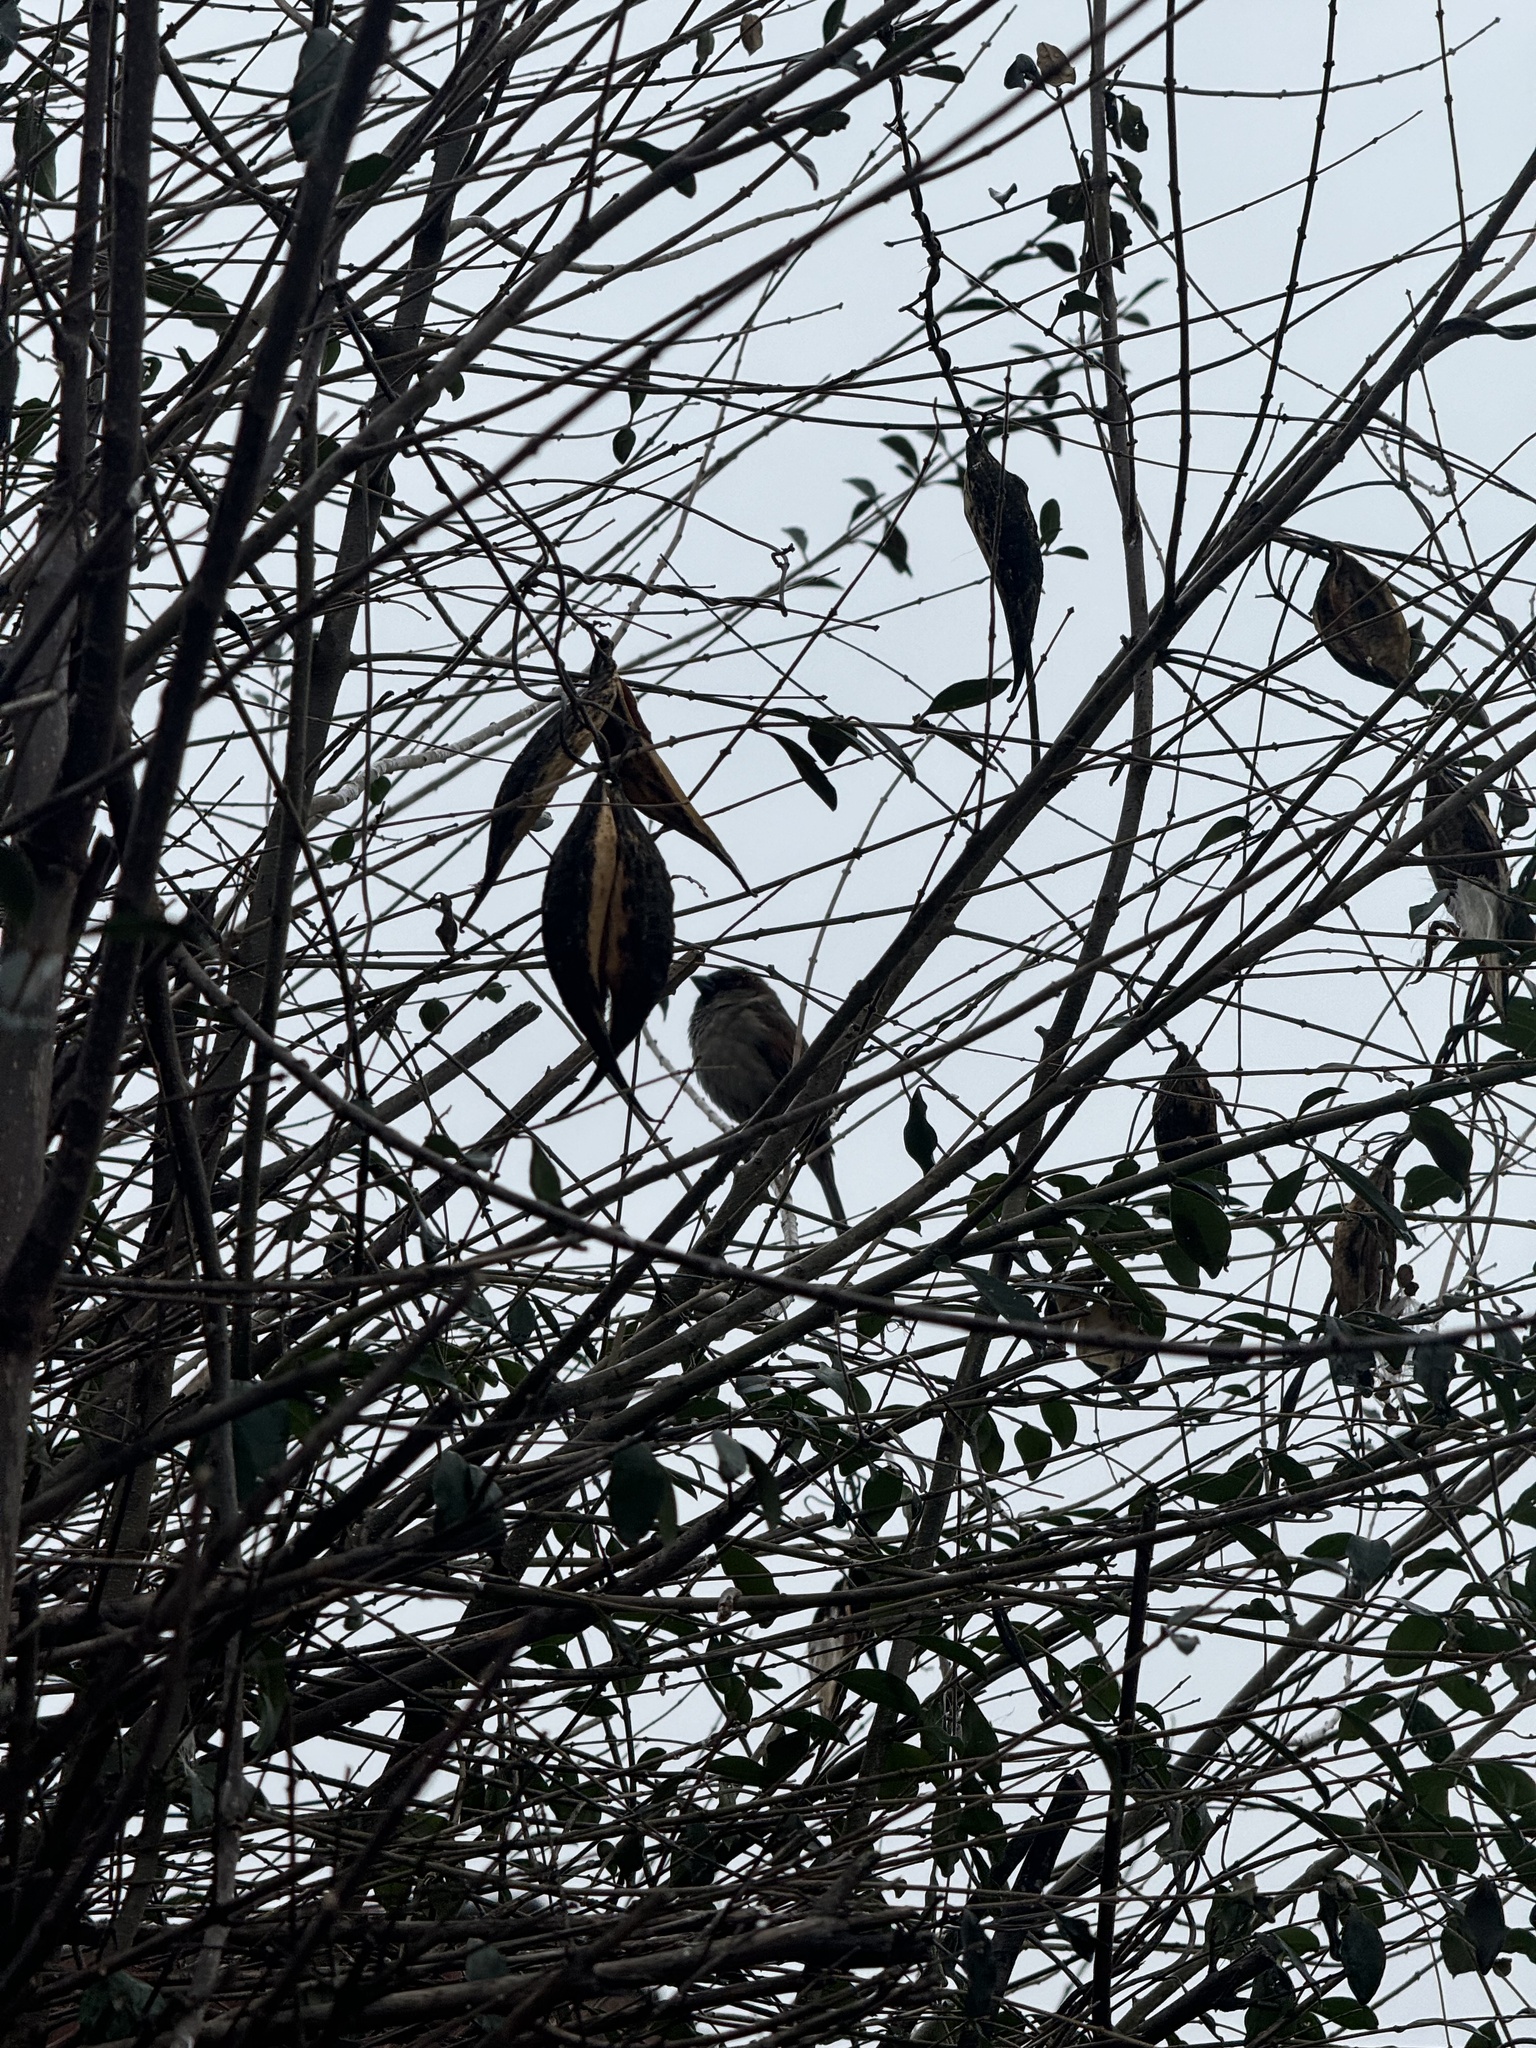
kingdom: Animalia
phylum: Chordata
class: Aves
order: Passeriformes
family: Passeridae
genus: Passer
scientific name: Passer domesticus
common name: House sparrow
